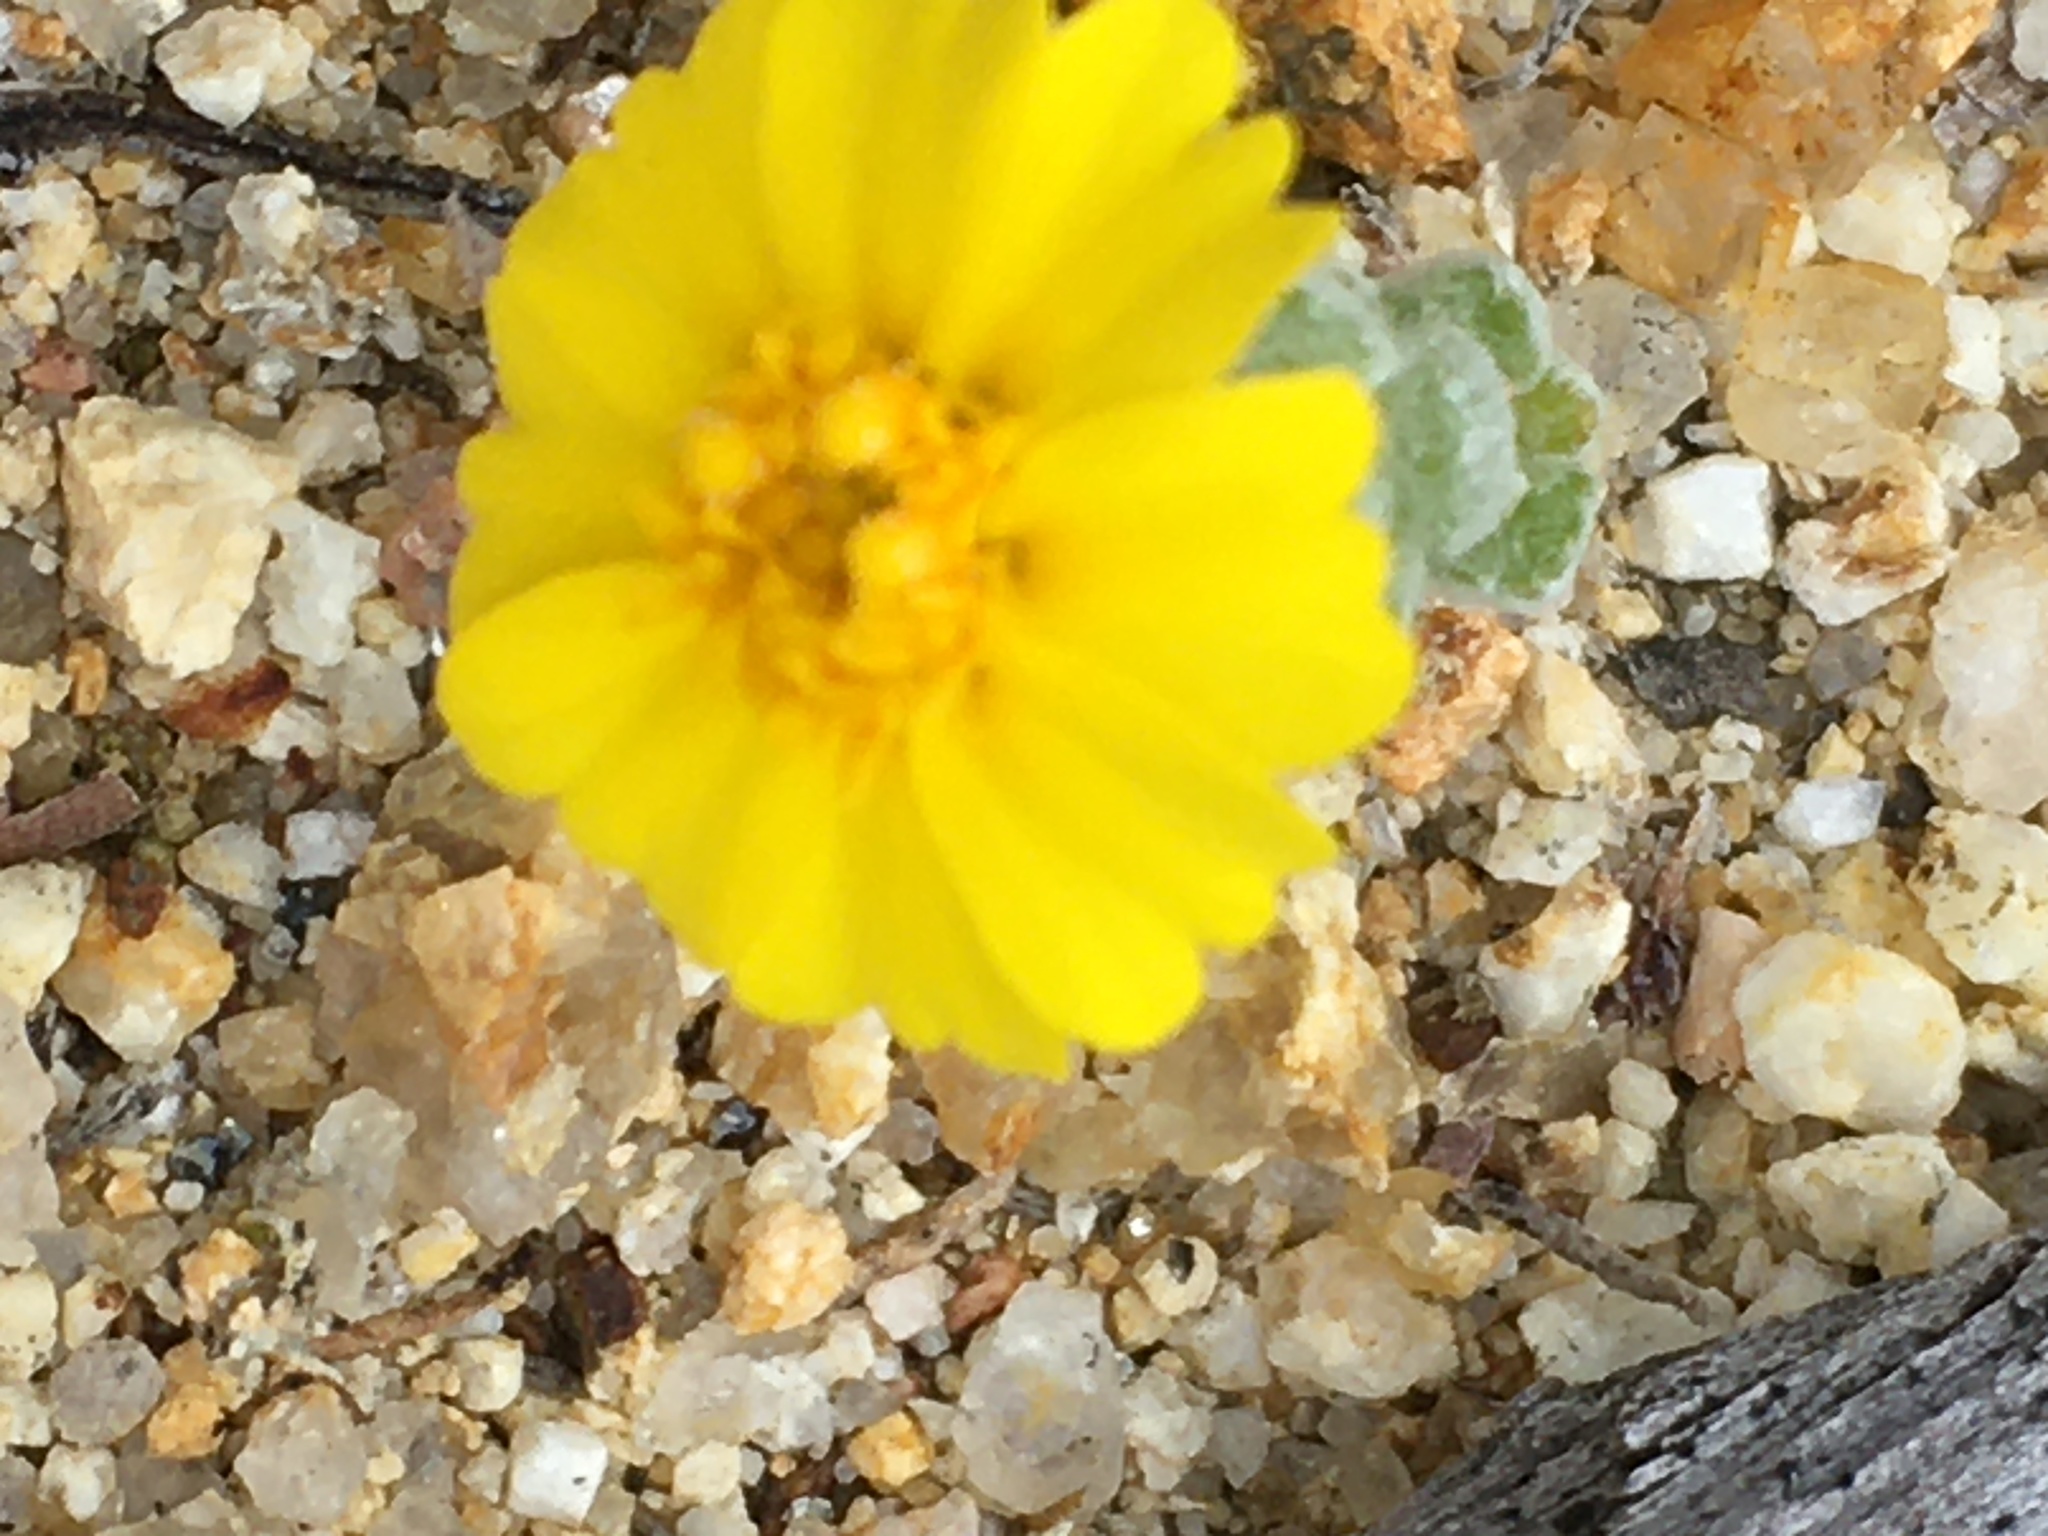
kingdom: Plantae
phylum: Tracheophyta
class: Magnoliopsida
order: Asterales
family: Asteraceae
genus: Eriophyllum
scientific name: Eriophyllum wallacei
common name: Wallace's woolly daisy
